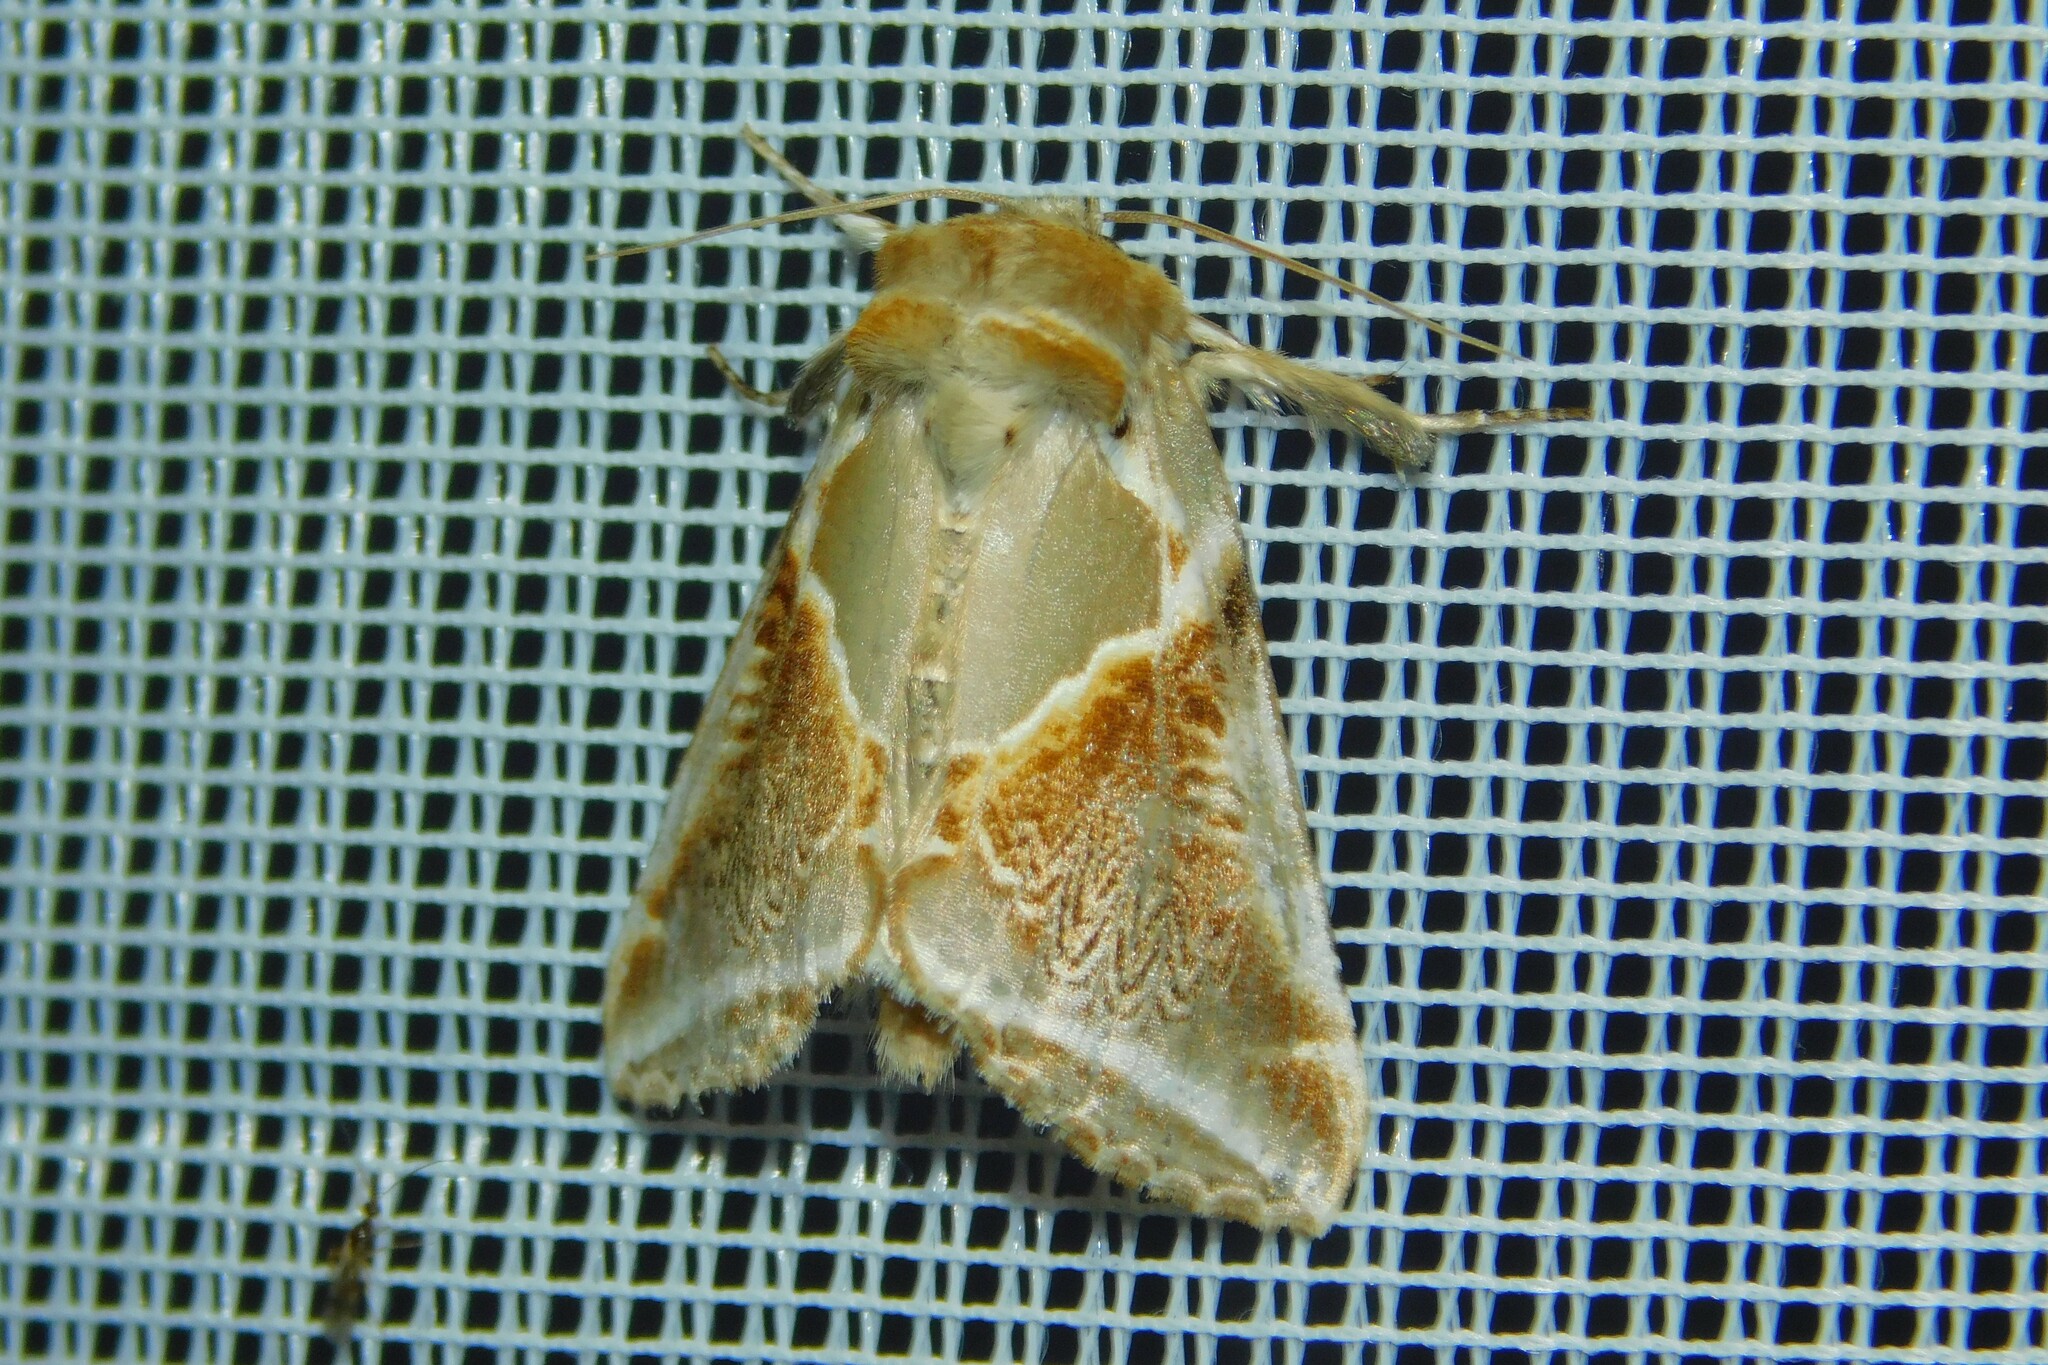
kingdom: Animalia
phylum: Arthropoda
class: Insecta
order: Lepidoptera
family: Drepanidae
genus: Habrosyne
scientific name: Habrosyne pyritoides
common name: Buff arches
